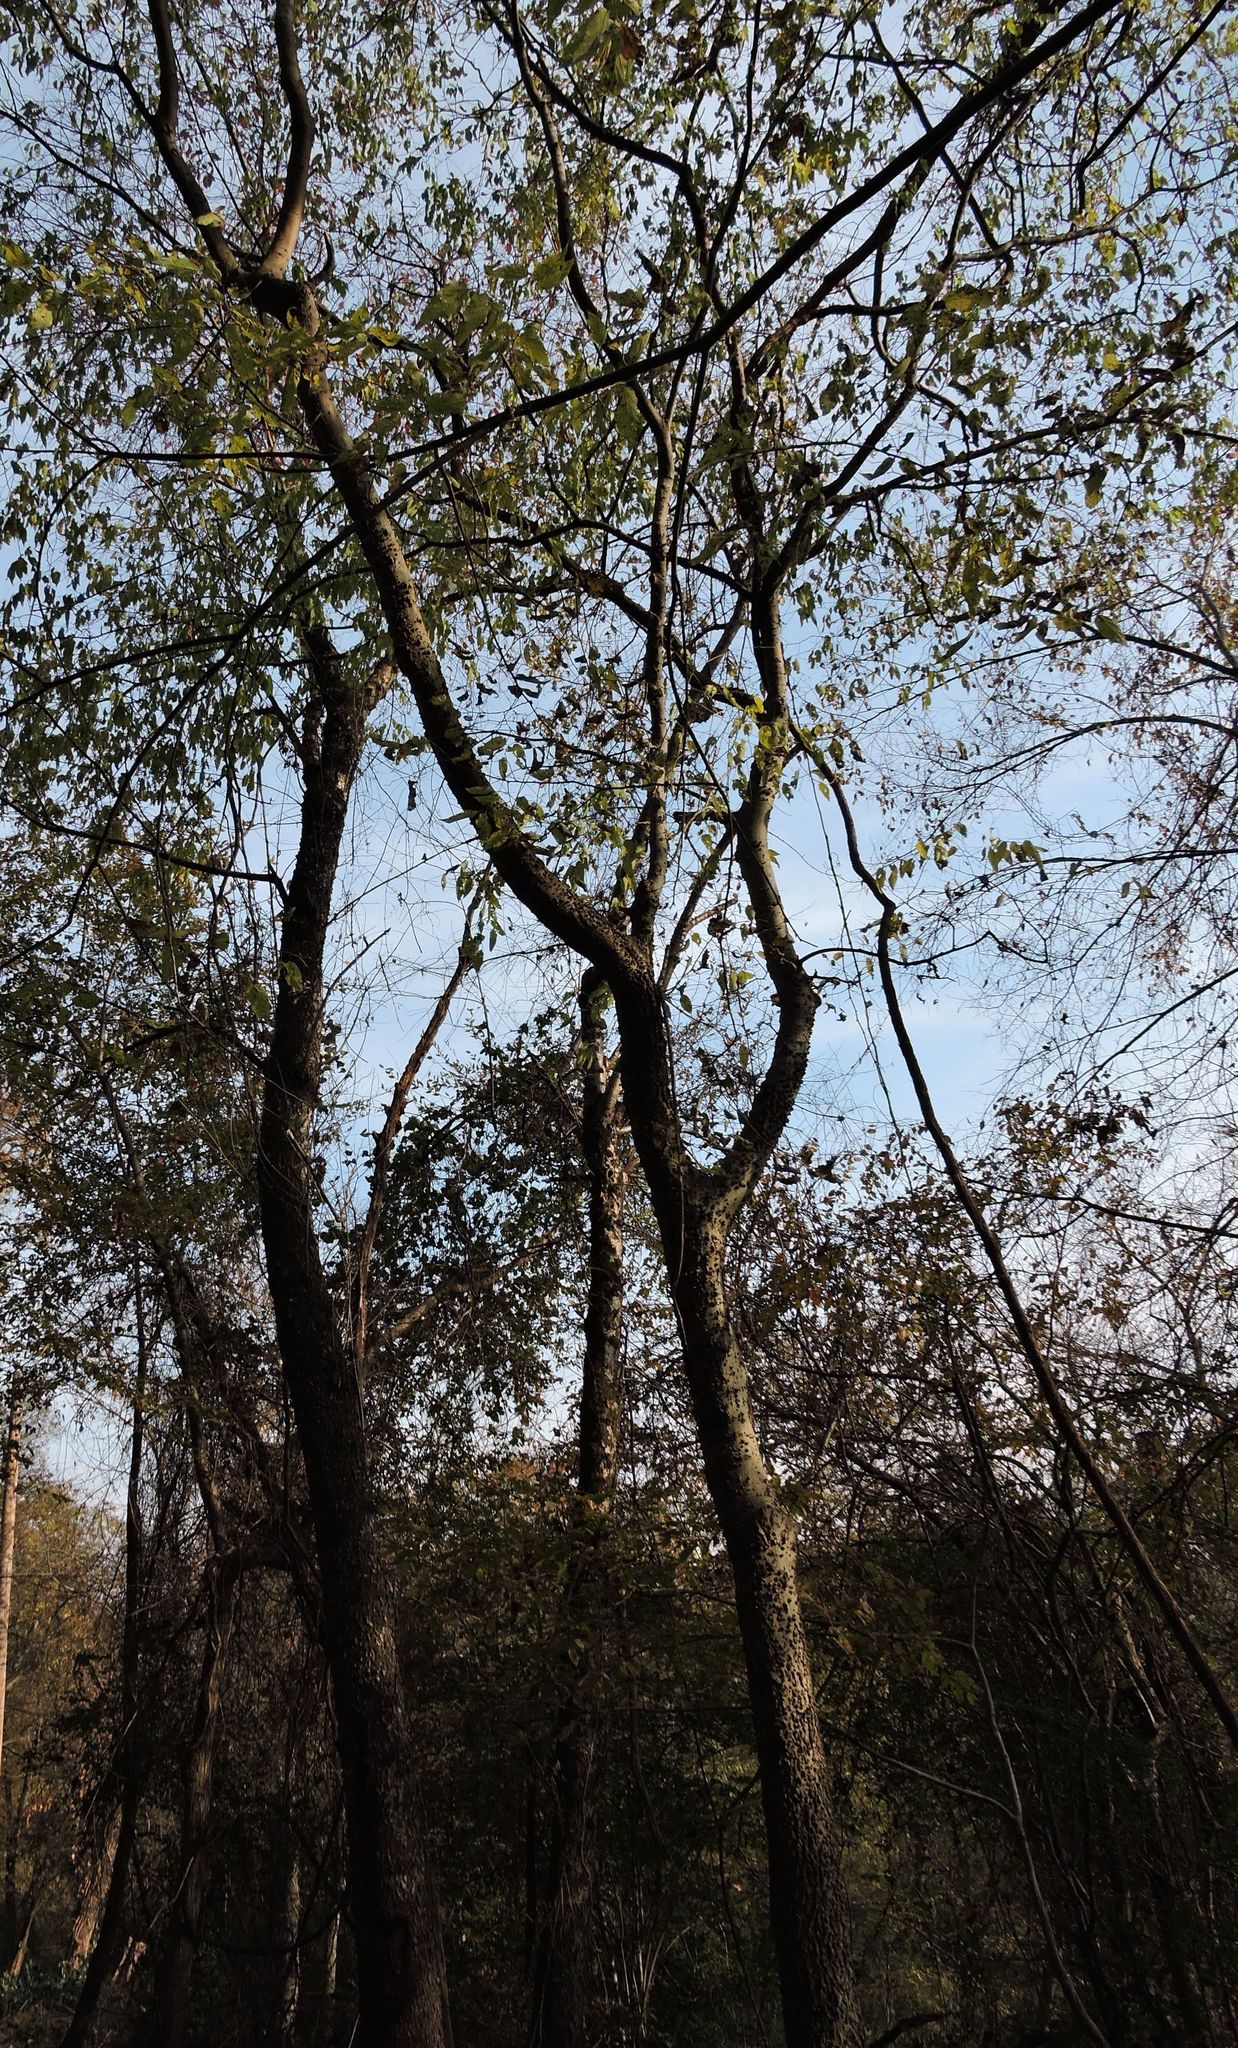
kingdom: Plantae
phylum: Tracheophyta
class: Magnoliopsida
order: Rosales
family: Cannabaceae
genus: Celtis
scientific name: Celtis occidentalis
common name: Common hackberry
